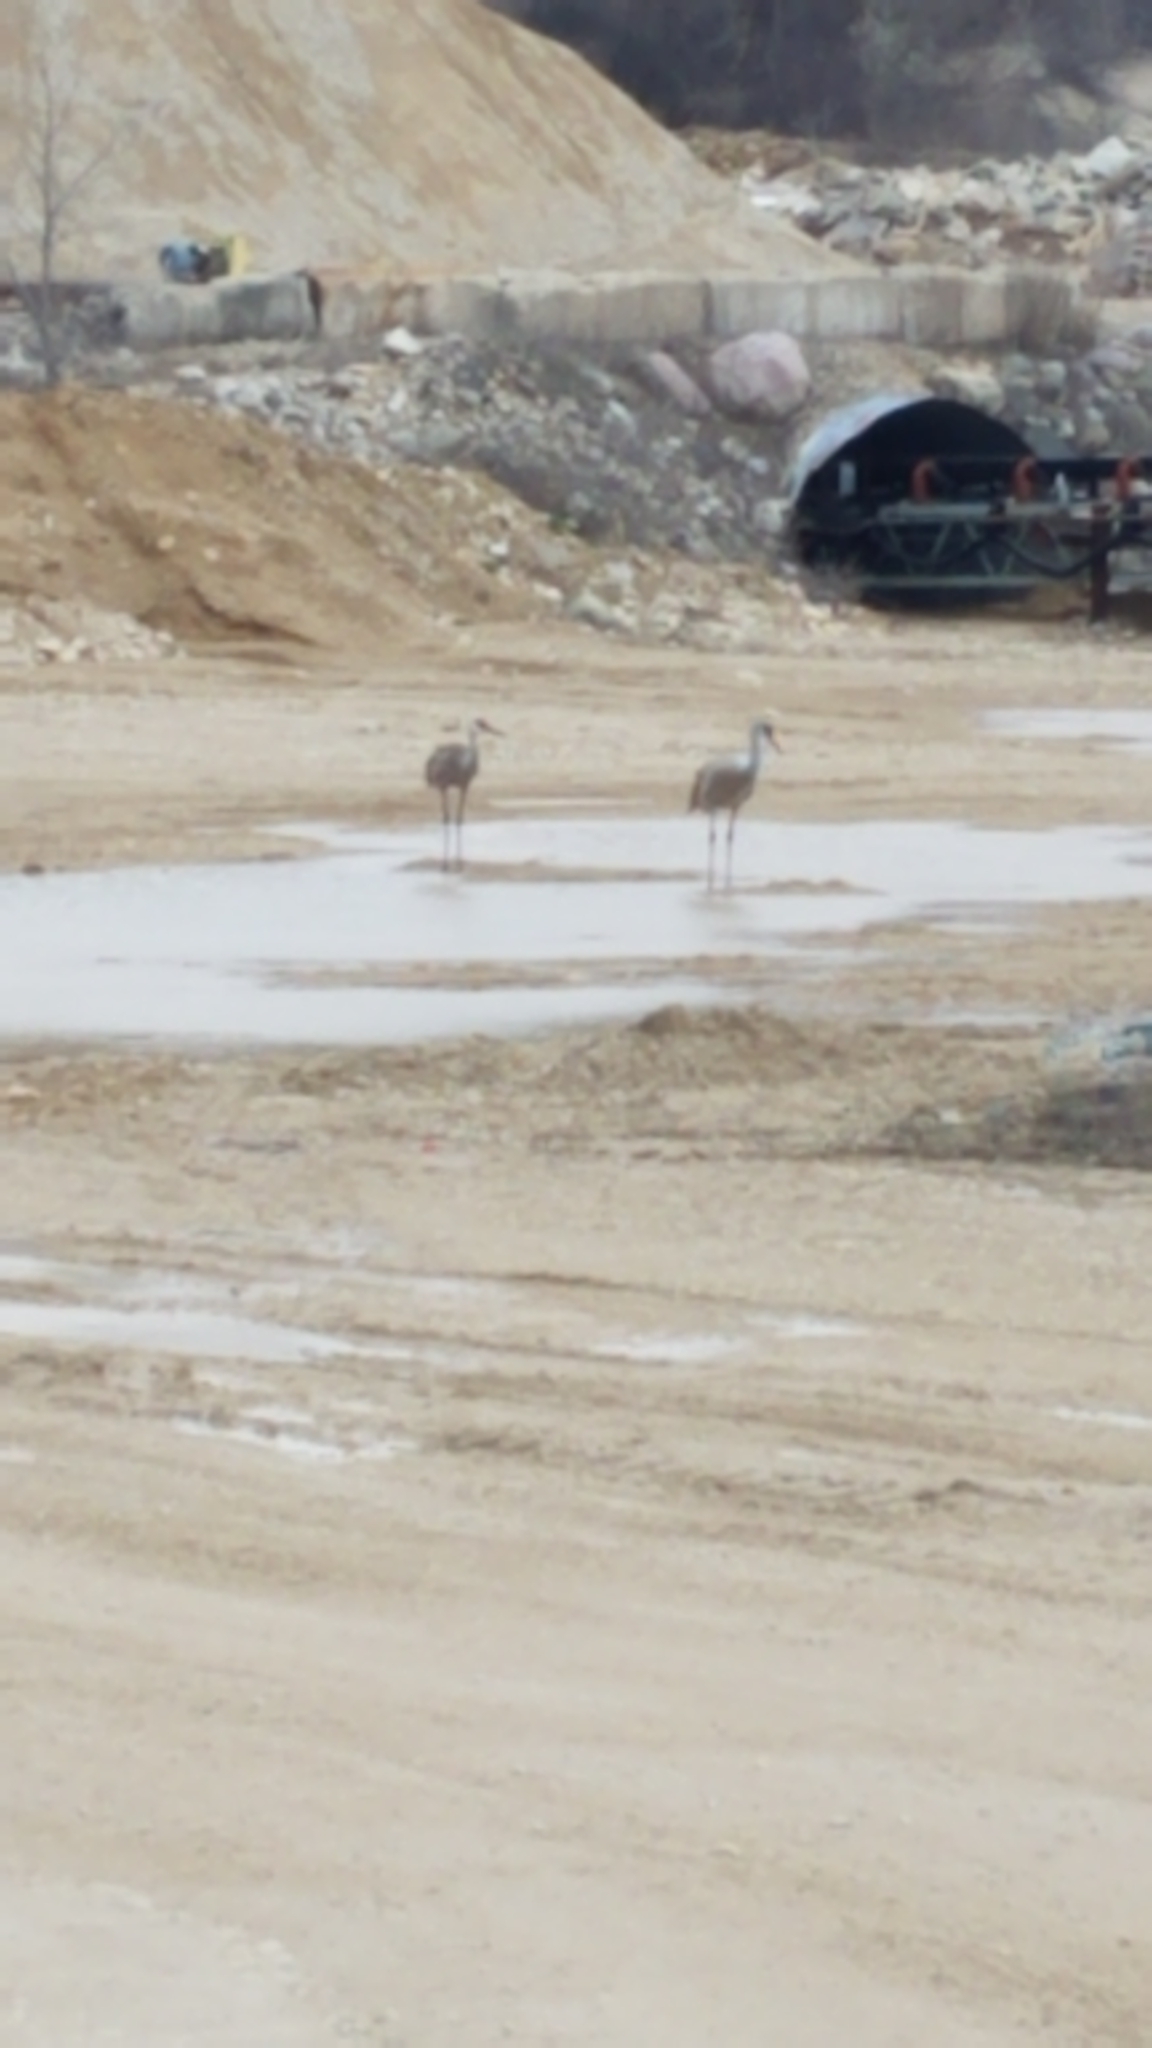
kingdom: Animalia
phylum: Chordata
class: Aves
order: Gruiformes
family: Gruidae
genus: Grus
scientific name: Grus canadensis
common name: Sandhill crane
